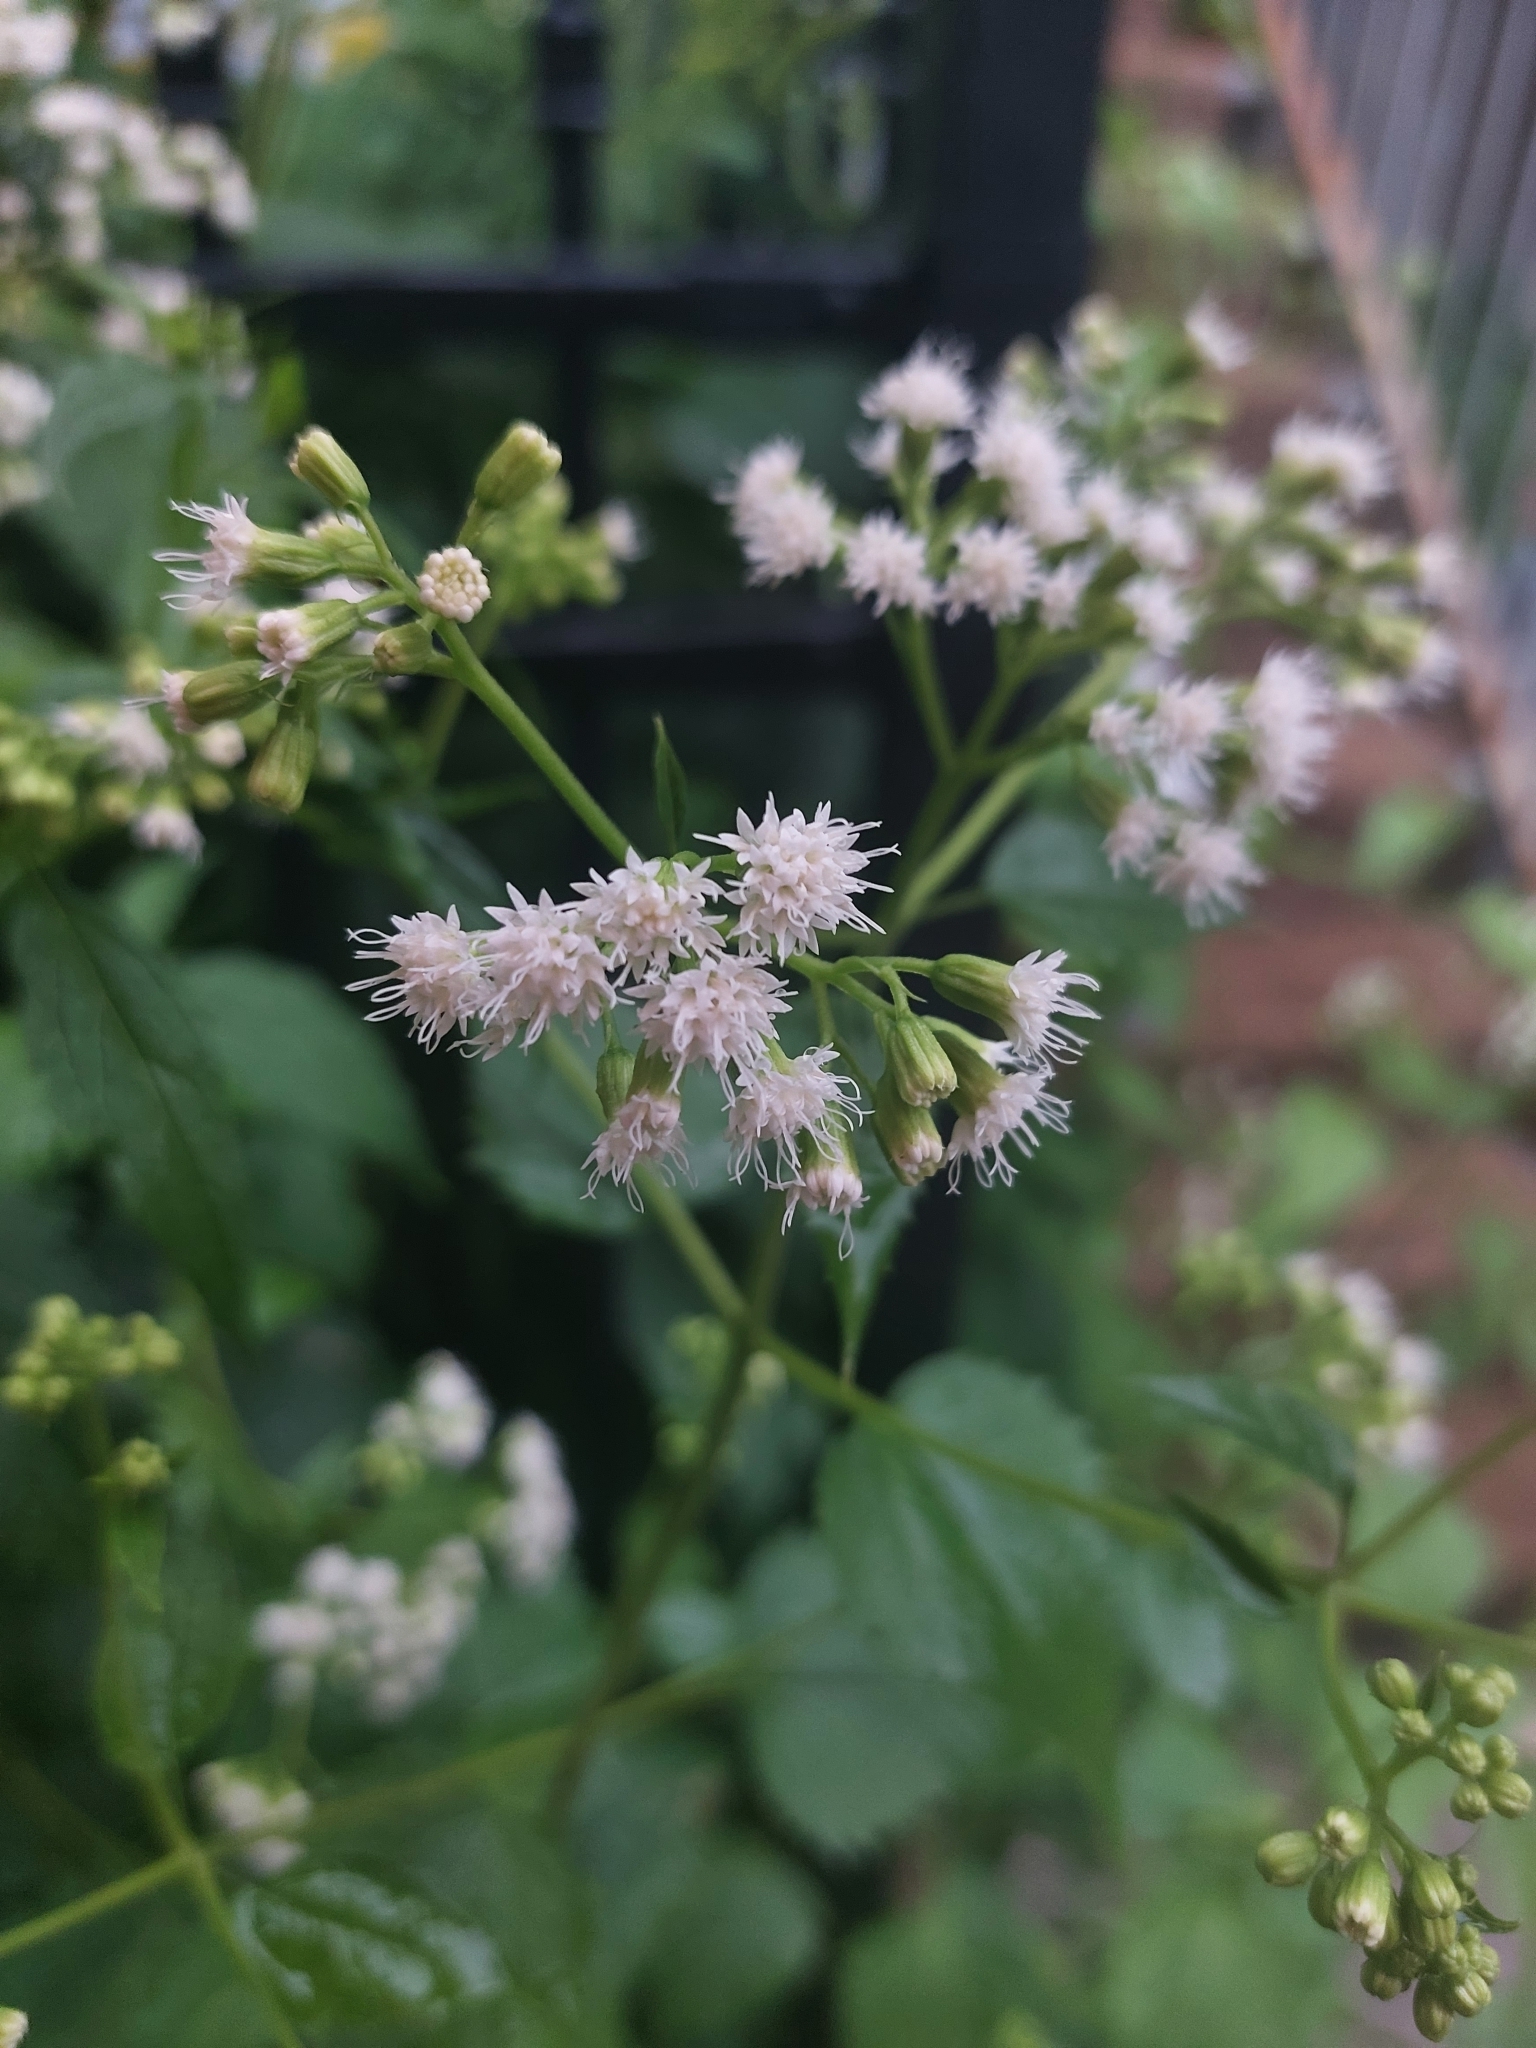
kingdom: Plantae
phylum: Tracheophyta
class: Magnoliopsida
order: Asterales
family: Asteraceae
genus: Ageratina
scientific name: Ageratina altissima
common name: White snakeroot
